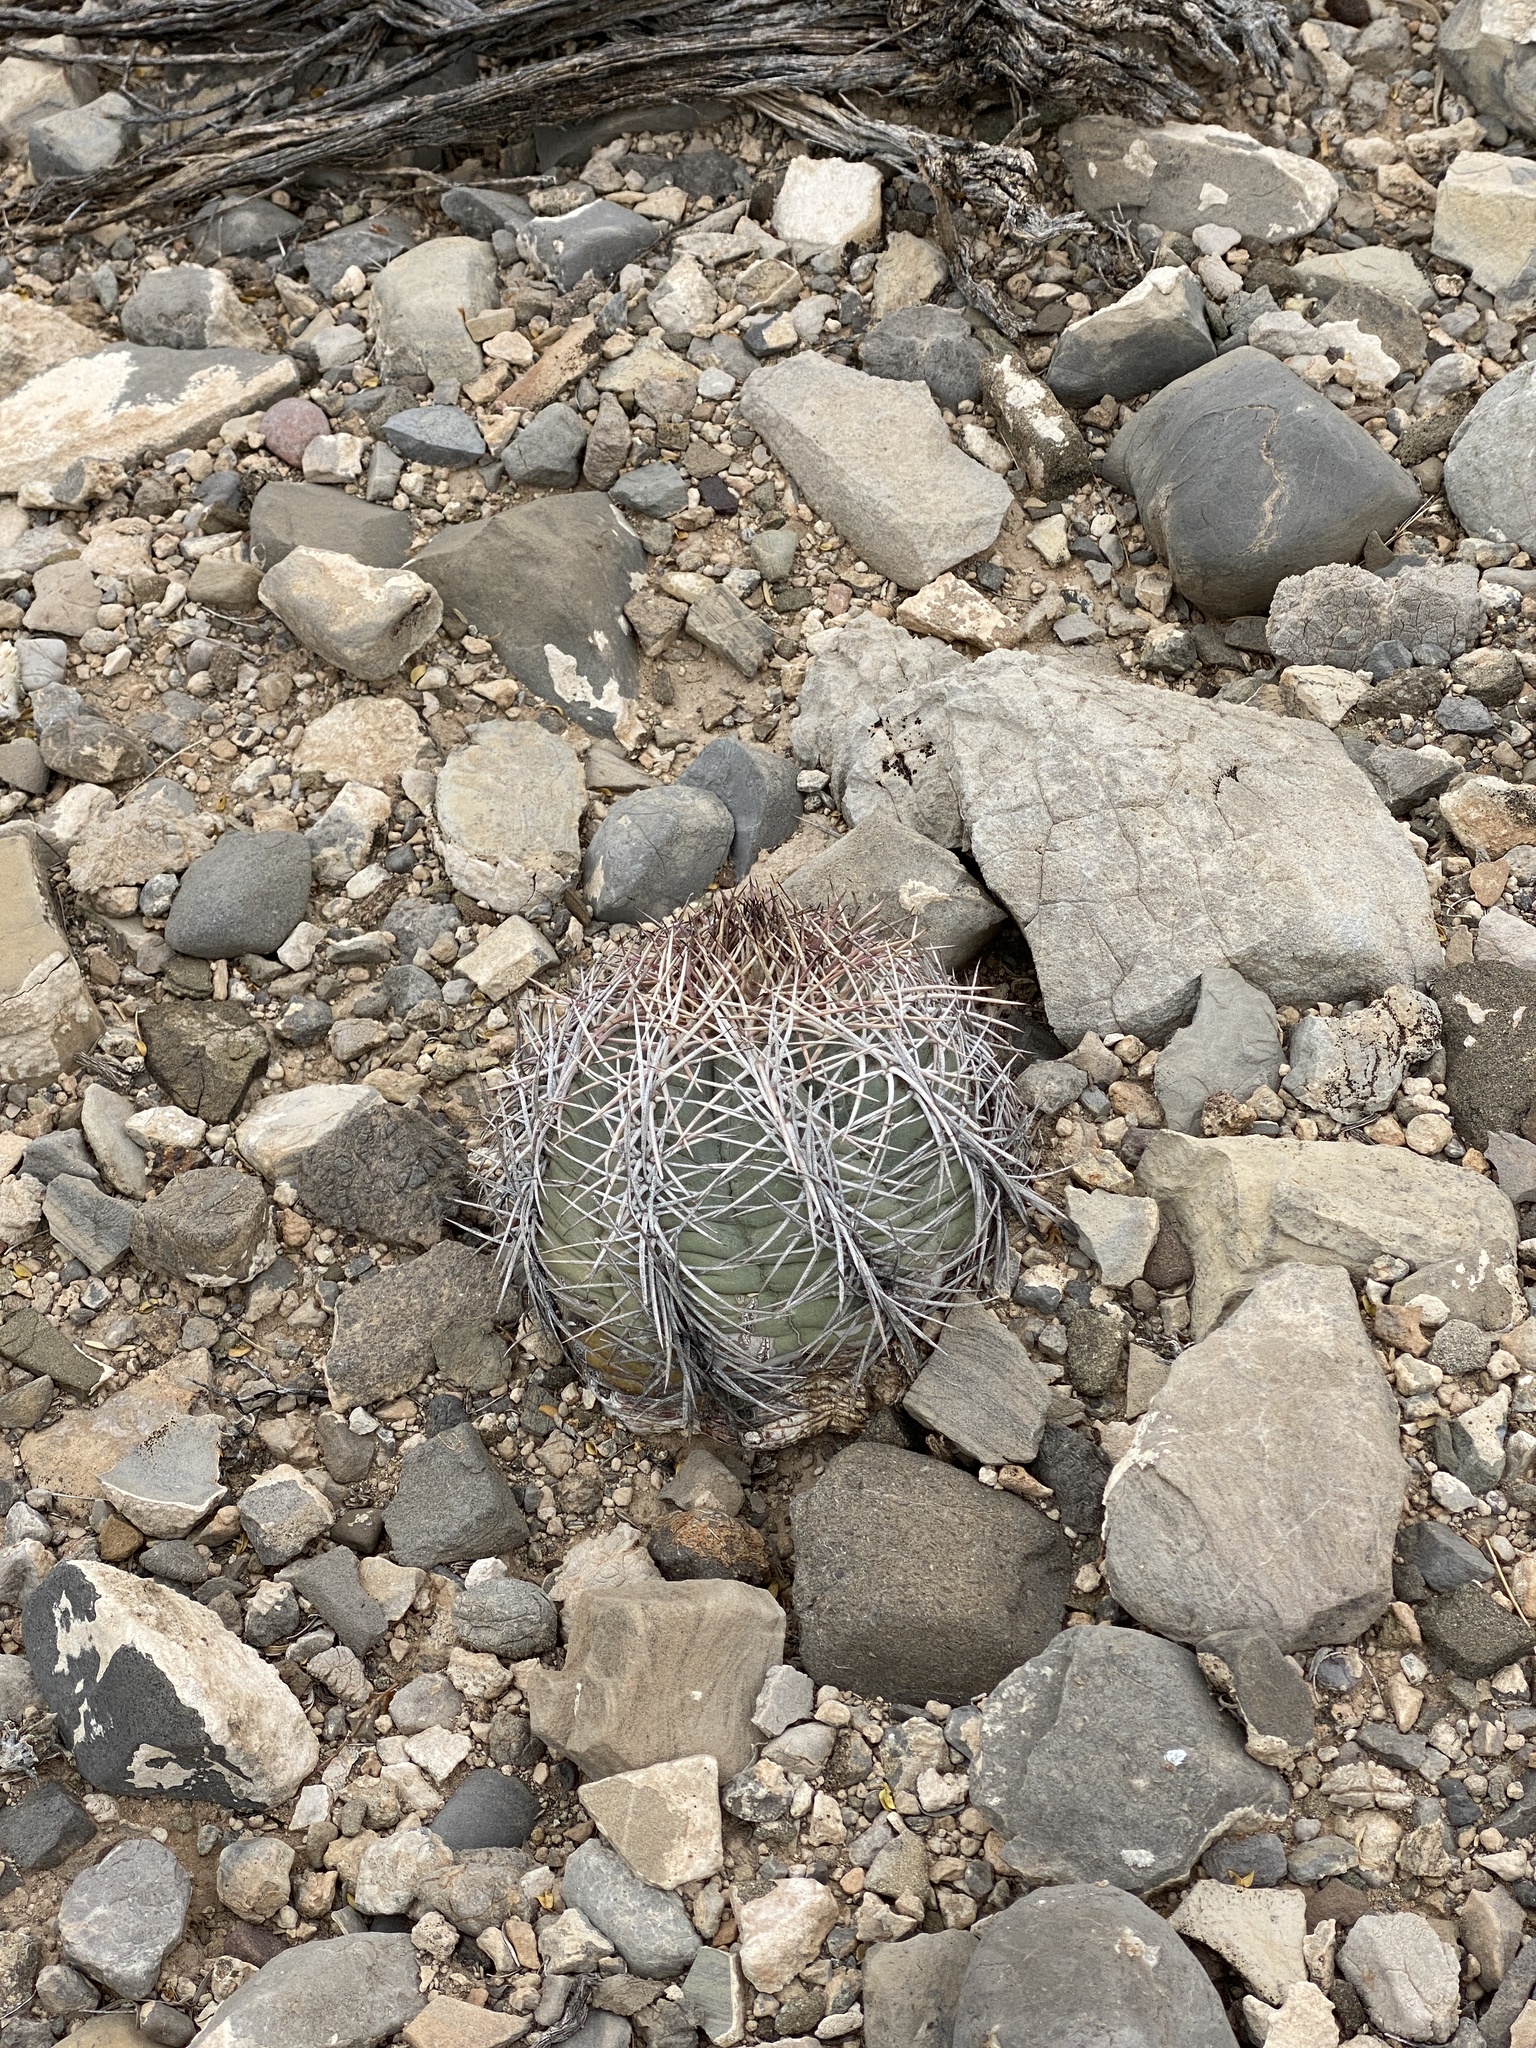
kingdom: Plantae
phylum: Tracheophyta
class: Magnoliopsida
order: Caryophyllales
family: Cactaceae
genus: Echinocactus
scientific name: Echinocactus horizonthalonius
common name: Devilshead
